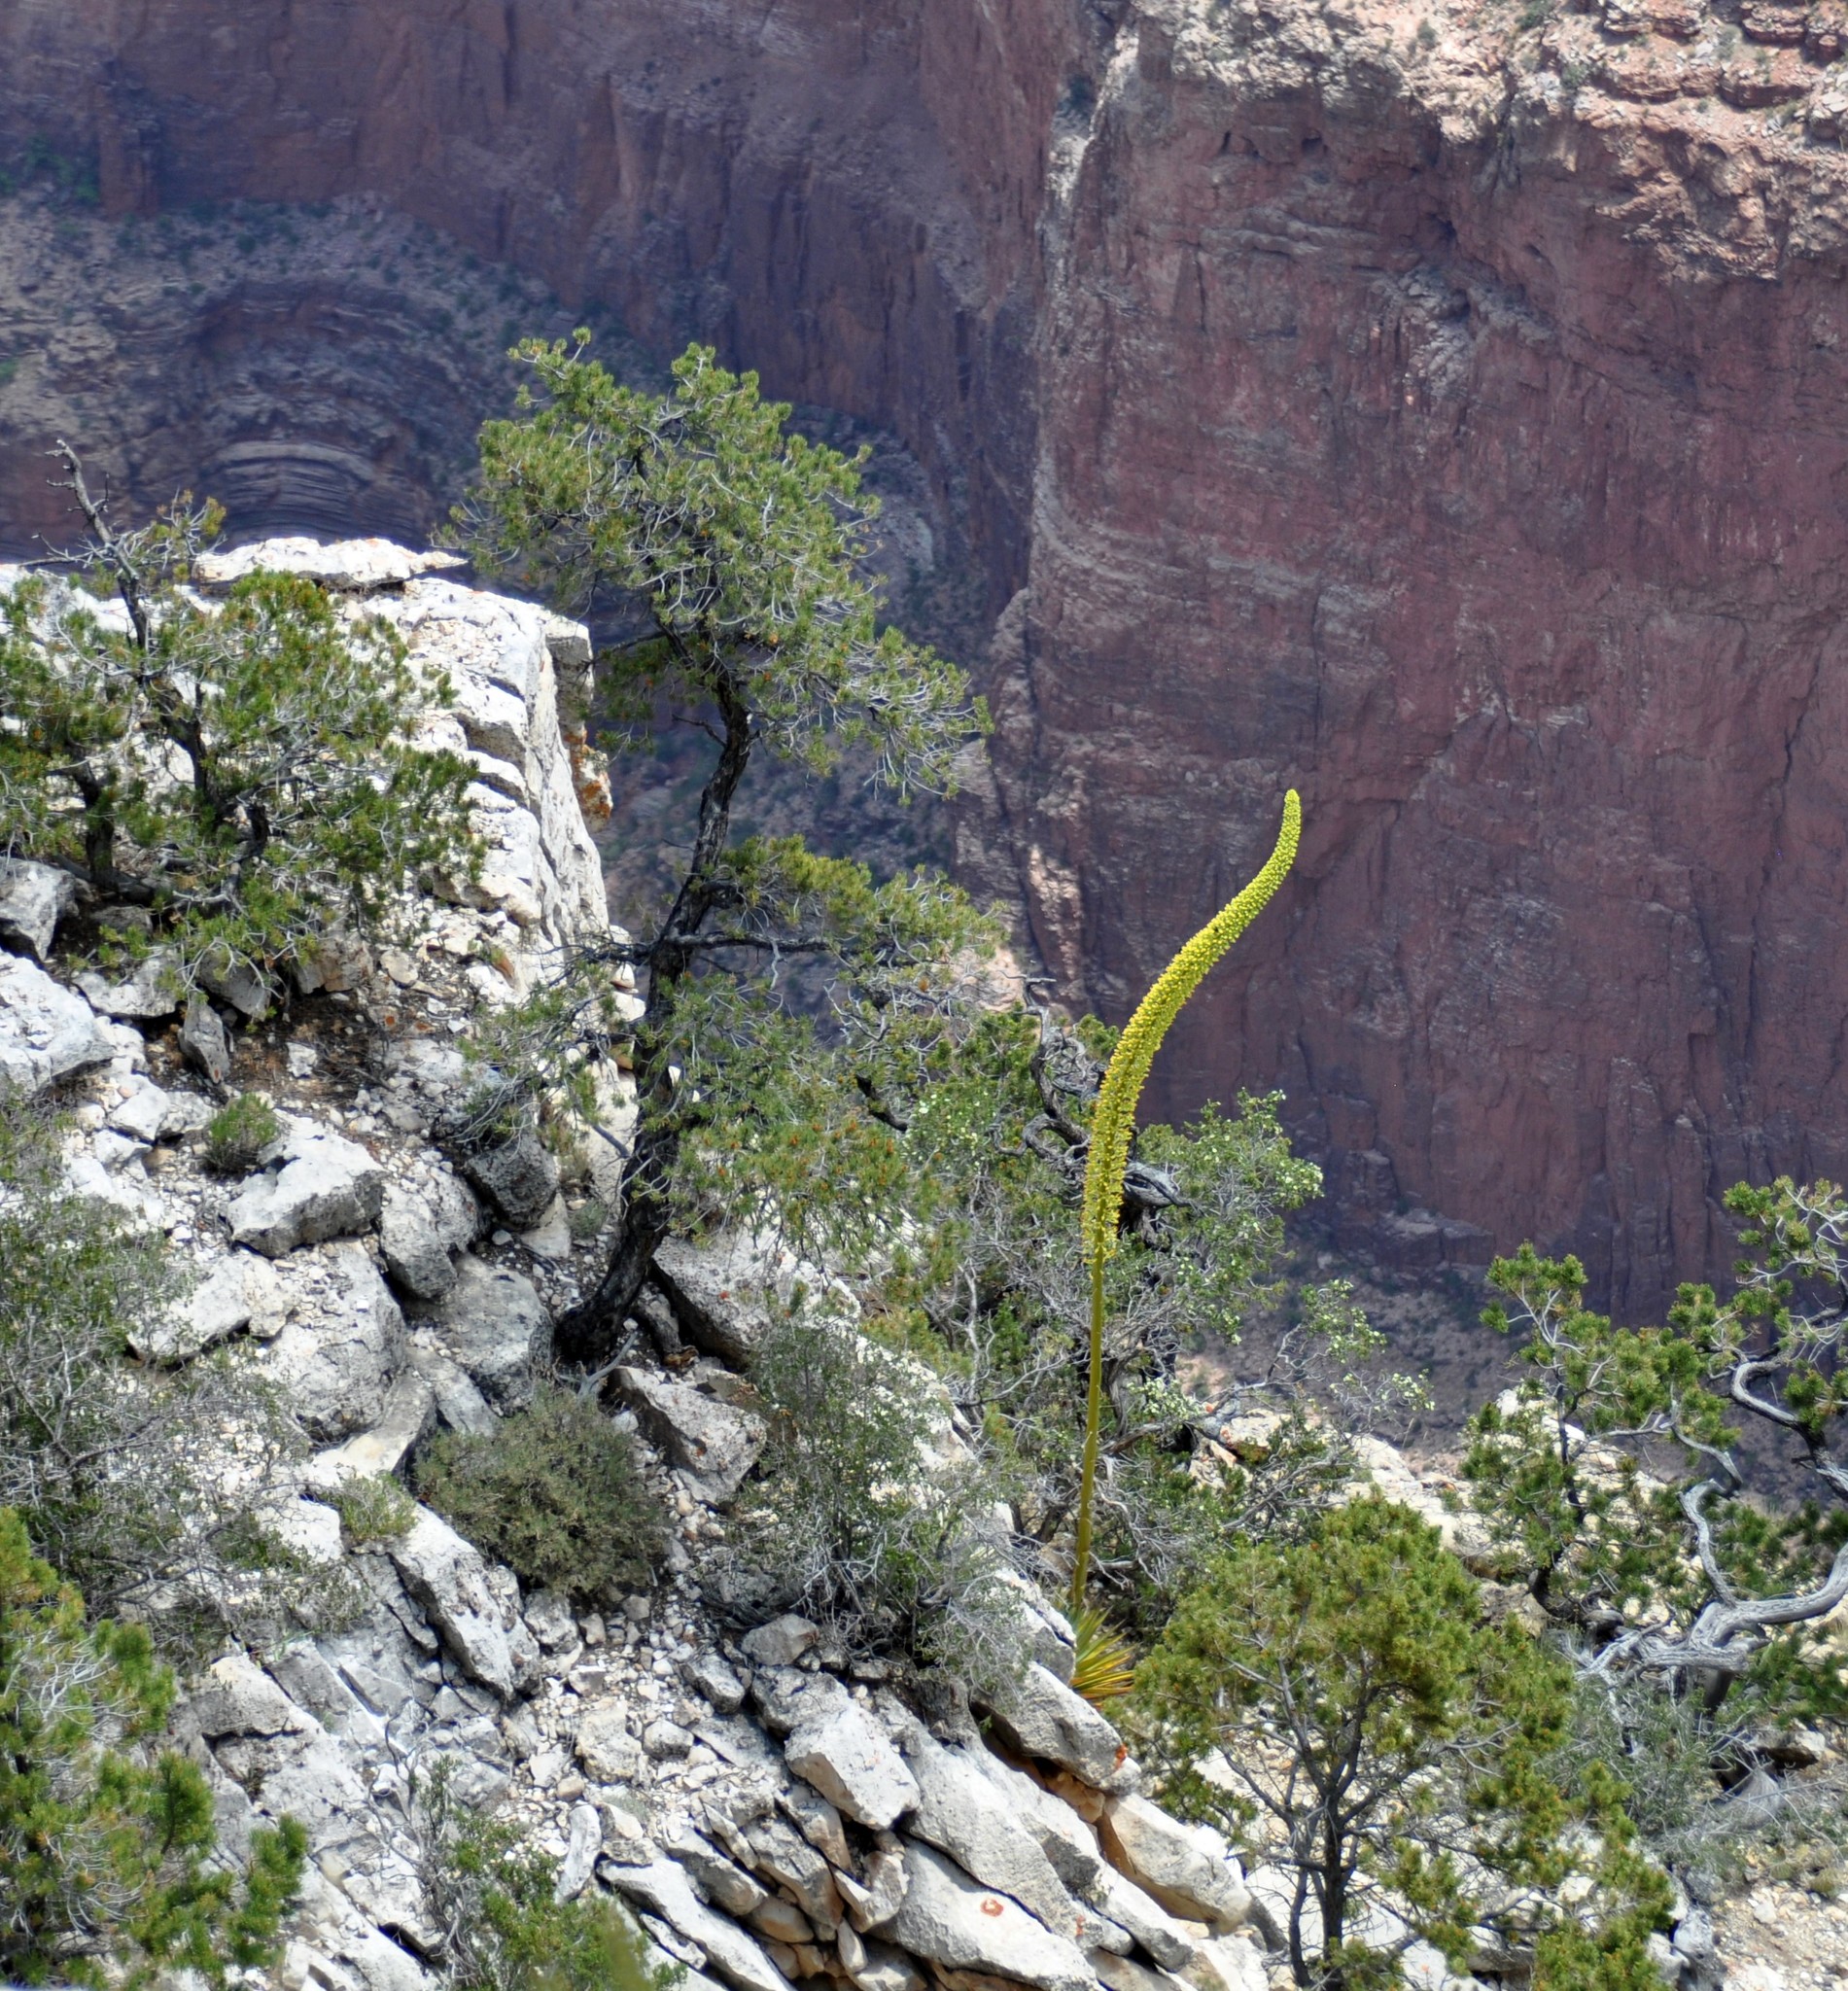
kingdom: Plantae
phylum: Tracheophyta
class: Liliopsida
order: Asparagales
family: Asparagaceae
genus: Agave
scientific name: Agave utahensis
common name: Utah agave
